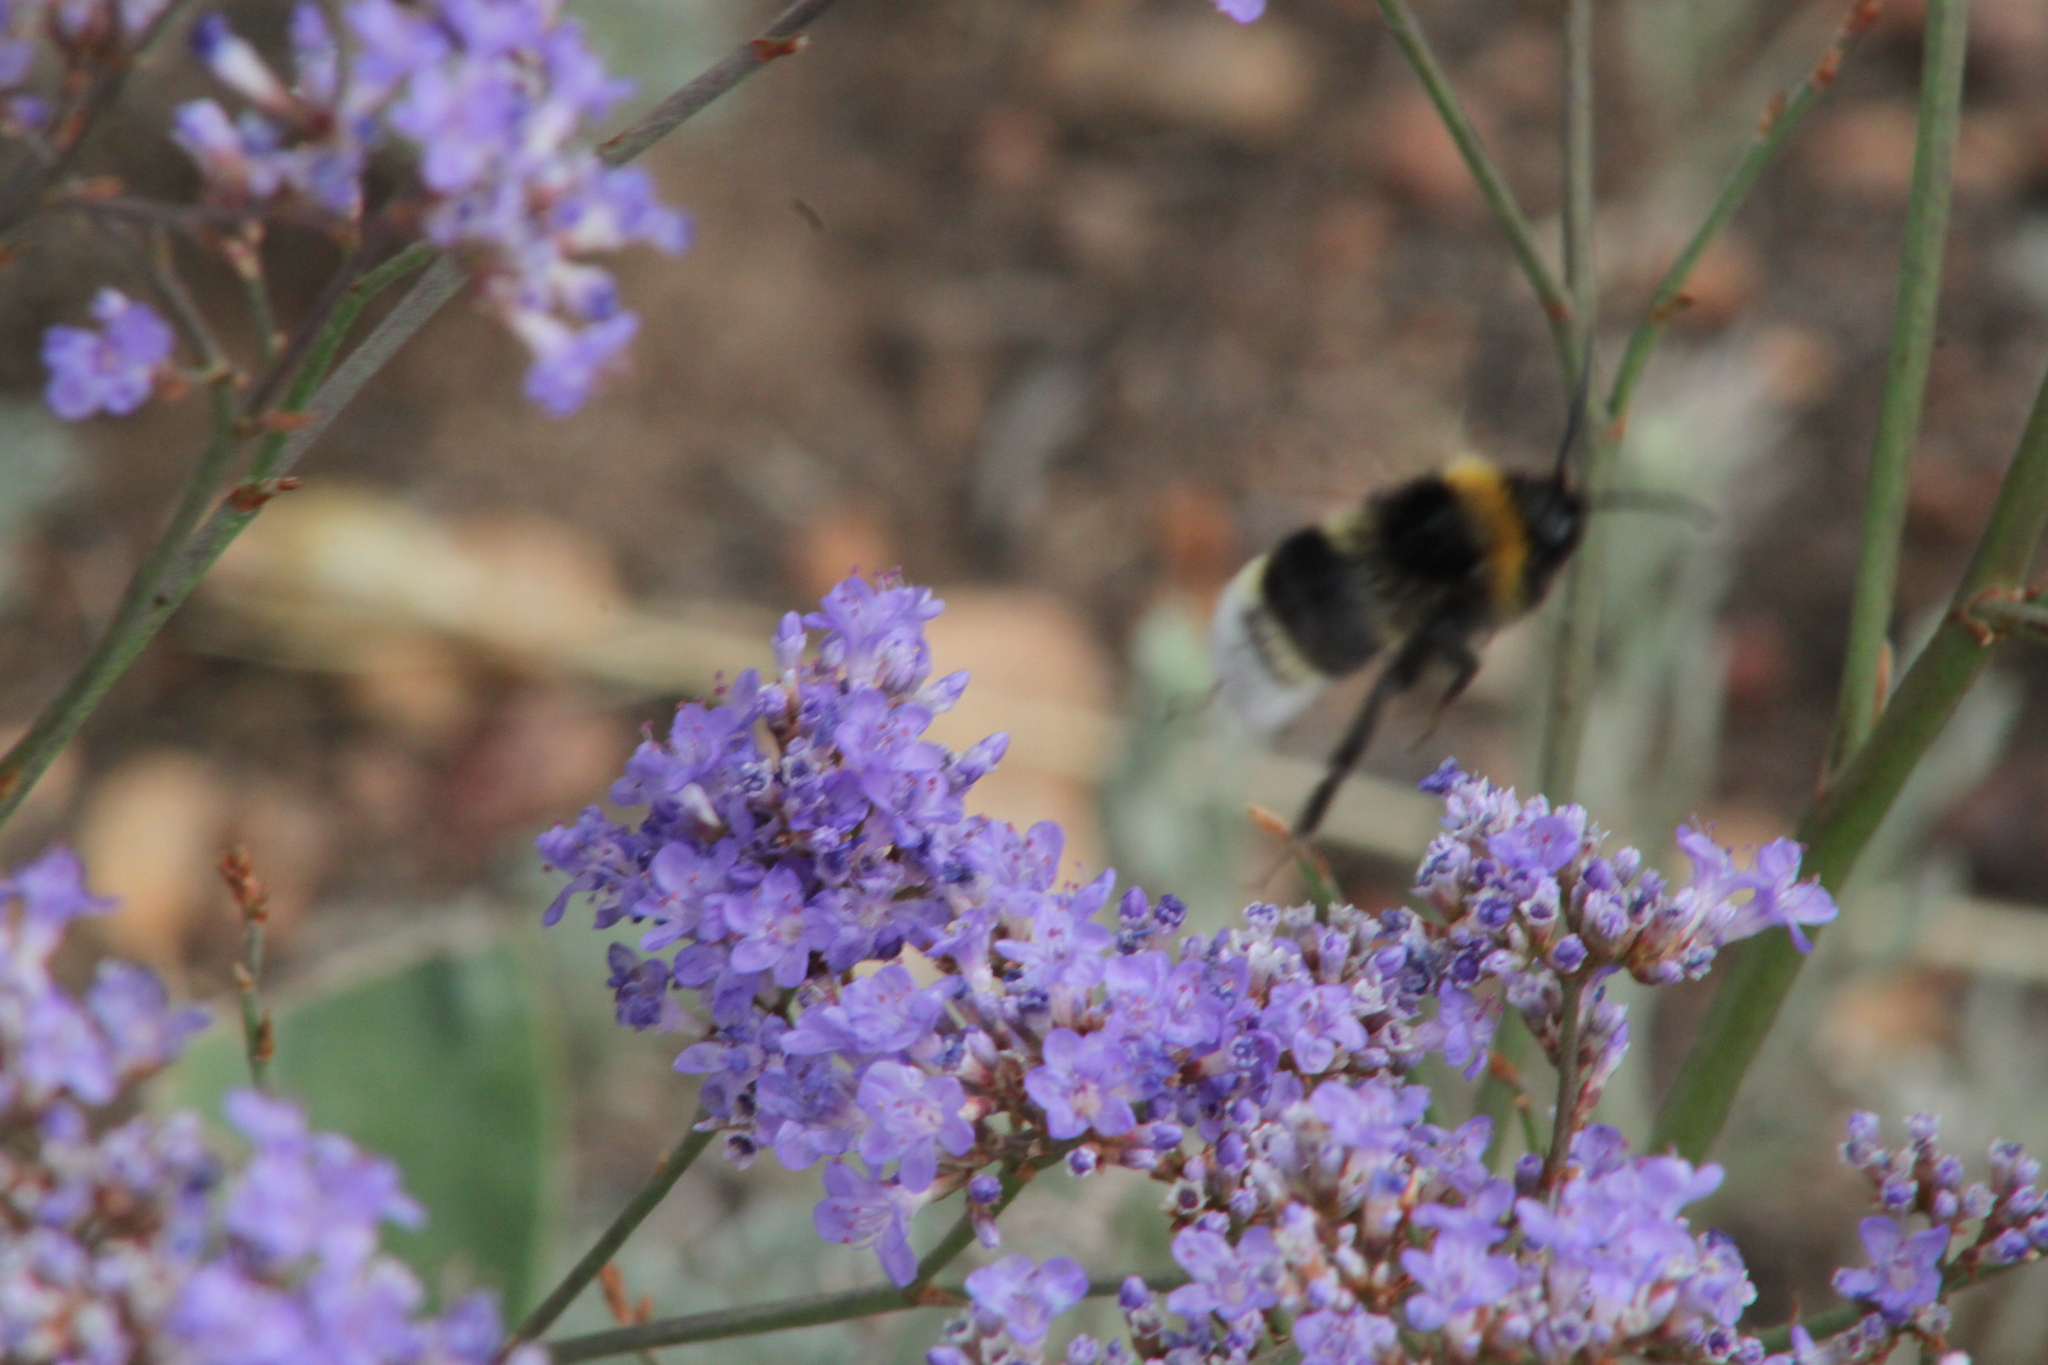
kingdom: Plantae
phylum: Tracheophyta
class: Magnoliopsida
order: Caryophyllales
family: Plumbaginaceae
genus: Limonium
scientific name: Limonium gmelini
